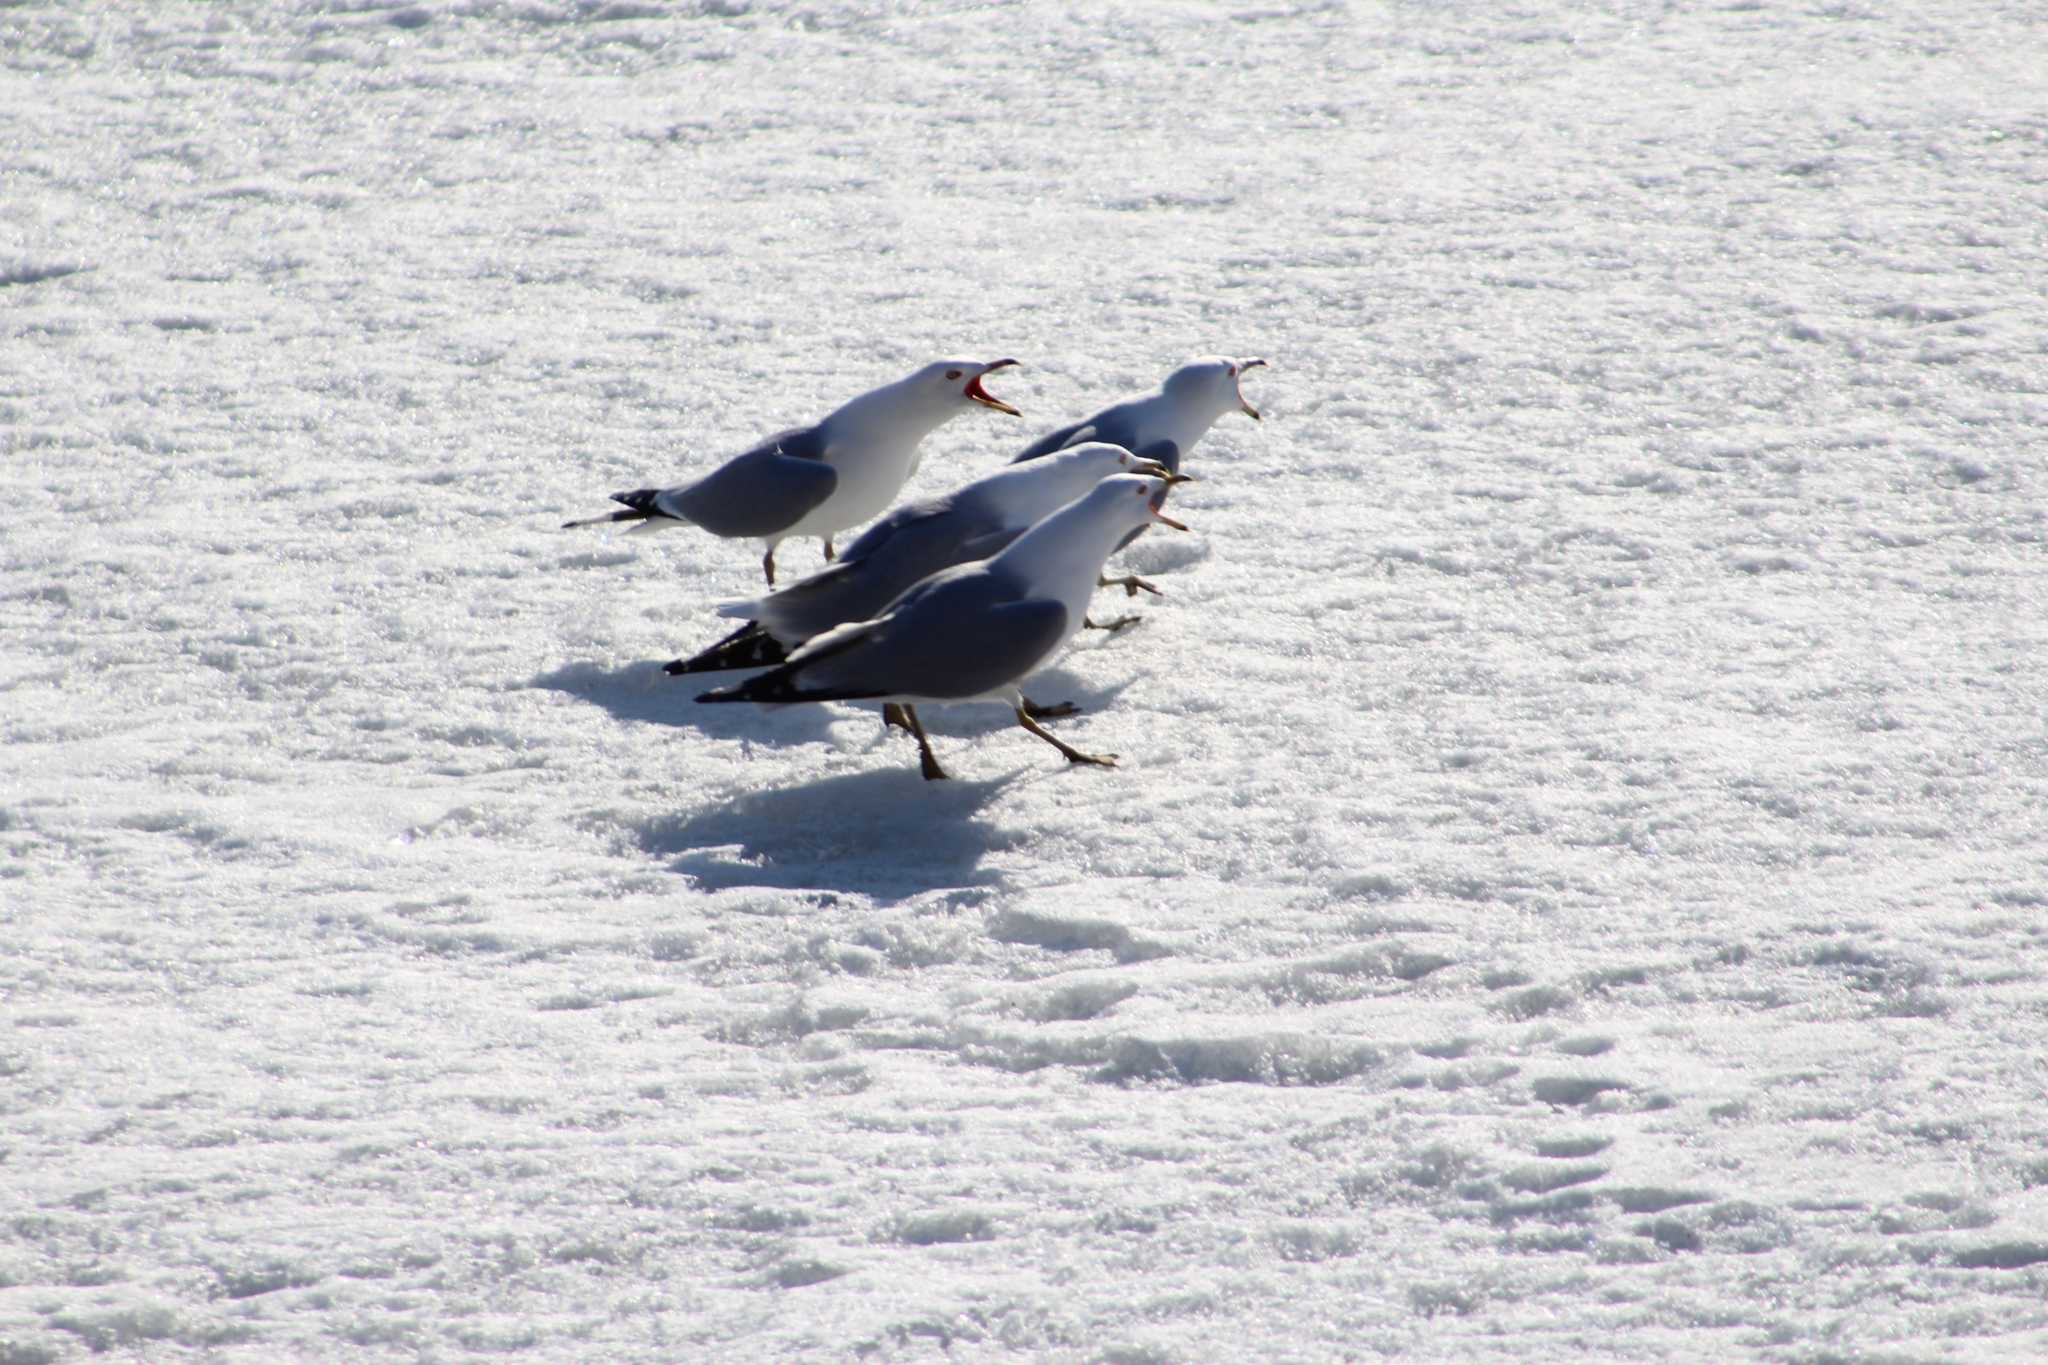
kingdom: Animalia
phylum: Chordata
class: Aves
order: Charadriiformes
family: Laridae
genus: Larus
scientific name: Larus delawarensis
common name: Ring-billed gull
